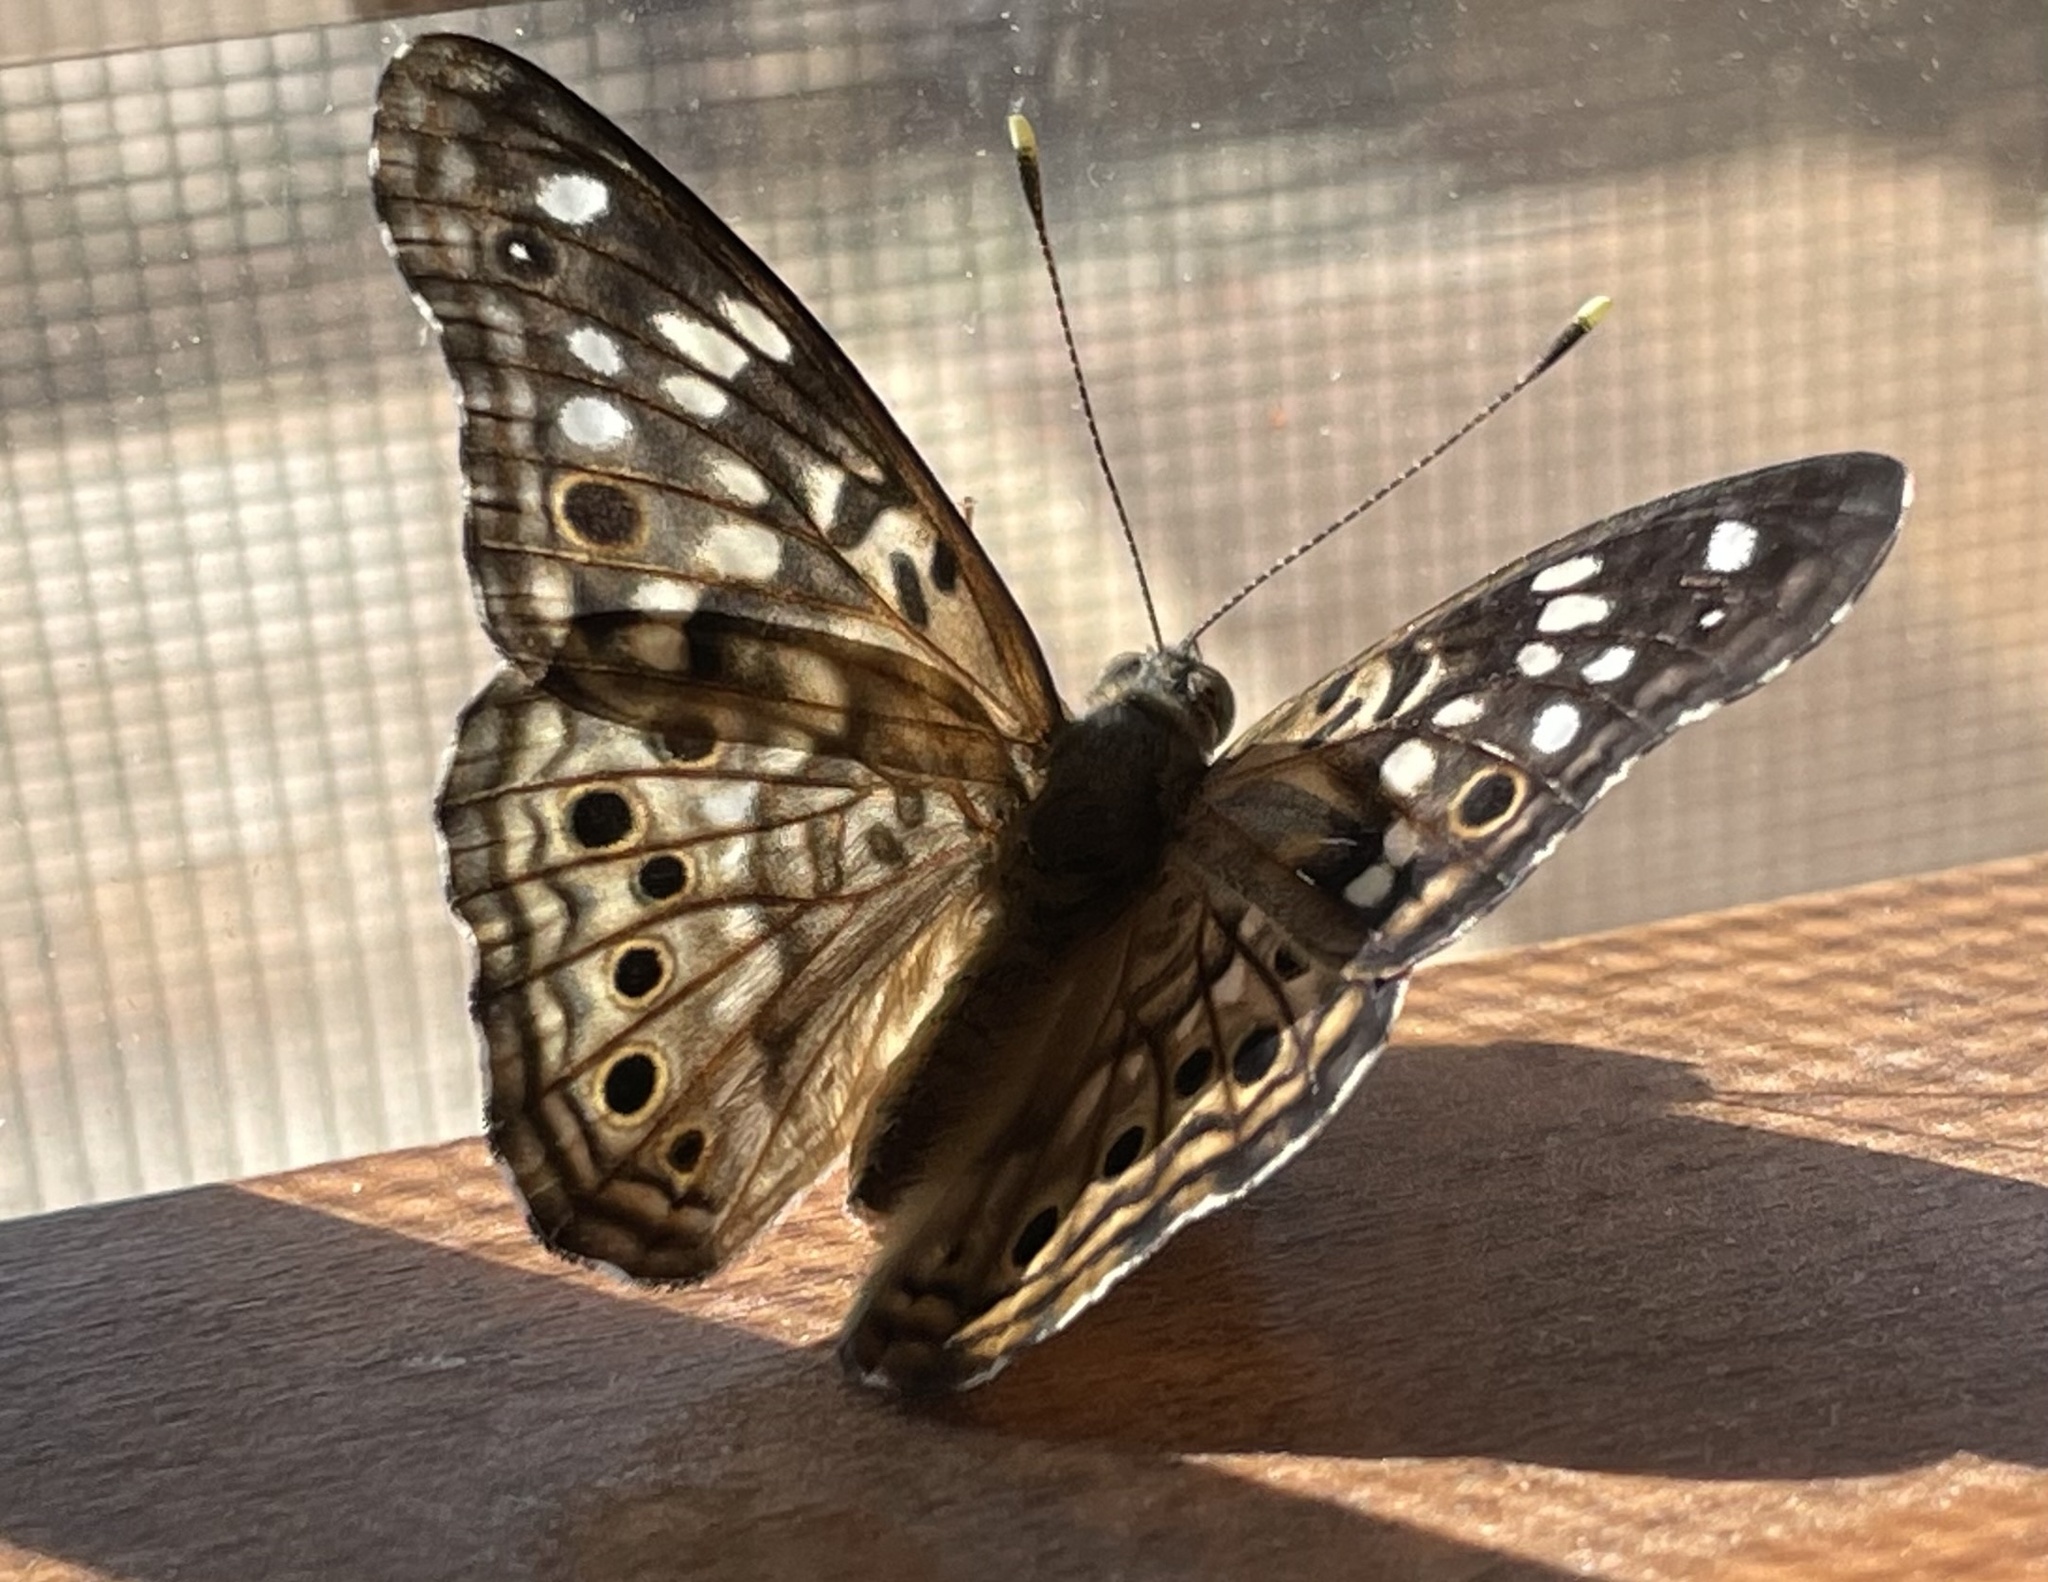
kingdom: Animalia
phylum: Arthropoda
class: Insecta
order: Lepidoptera
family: Nymphalidae
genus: Asterocampa
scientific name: Asterocampa celtis
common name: Hackberry emperor
